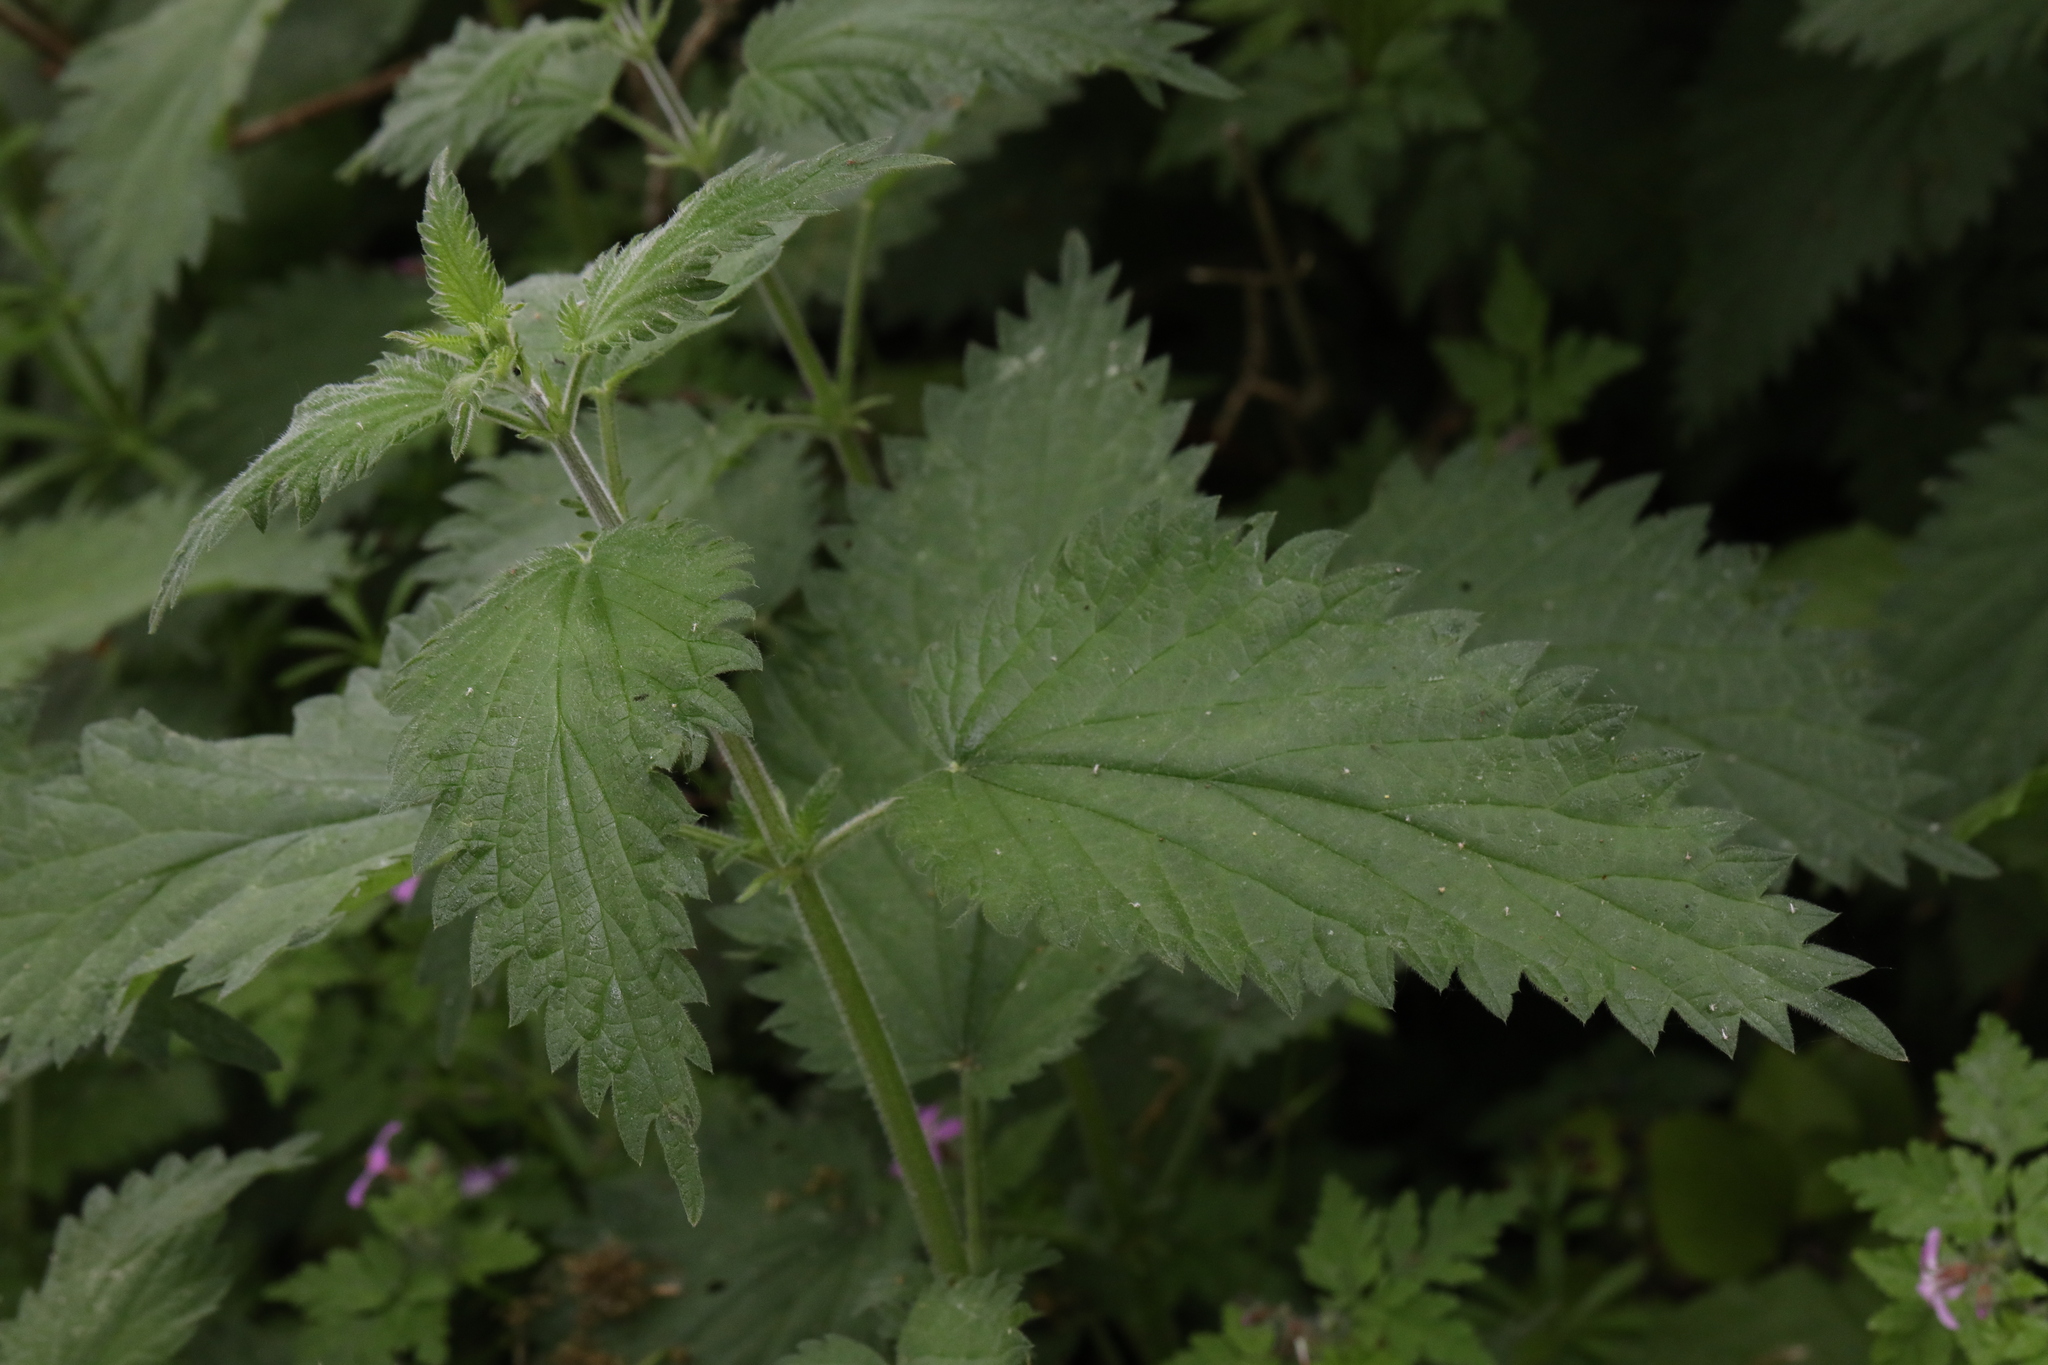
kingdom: Plantae
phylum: Tracheophyta
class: Magnoliopsida
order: Rosales
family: Urticaceae
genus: Urtica
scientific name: Urtica dioica
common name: Common nettle
